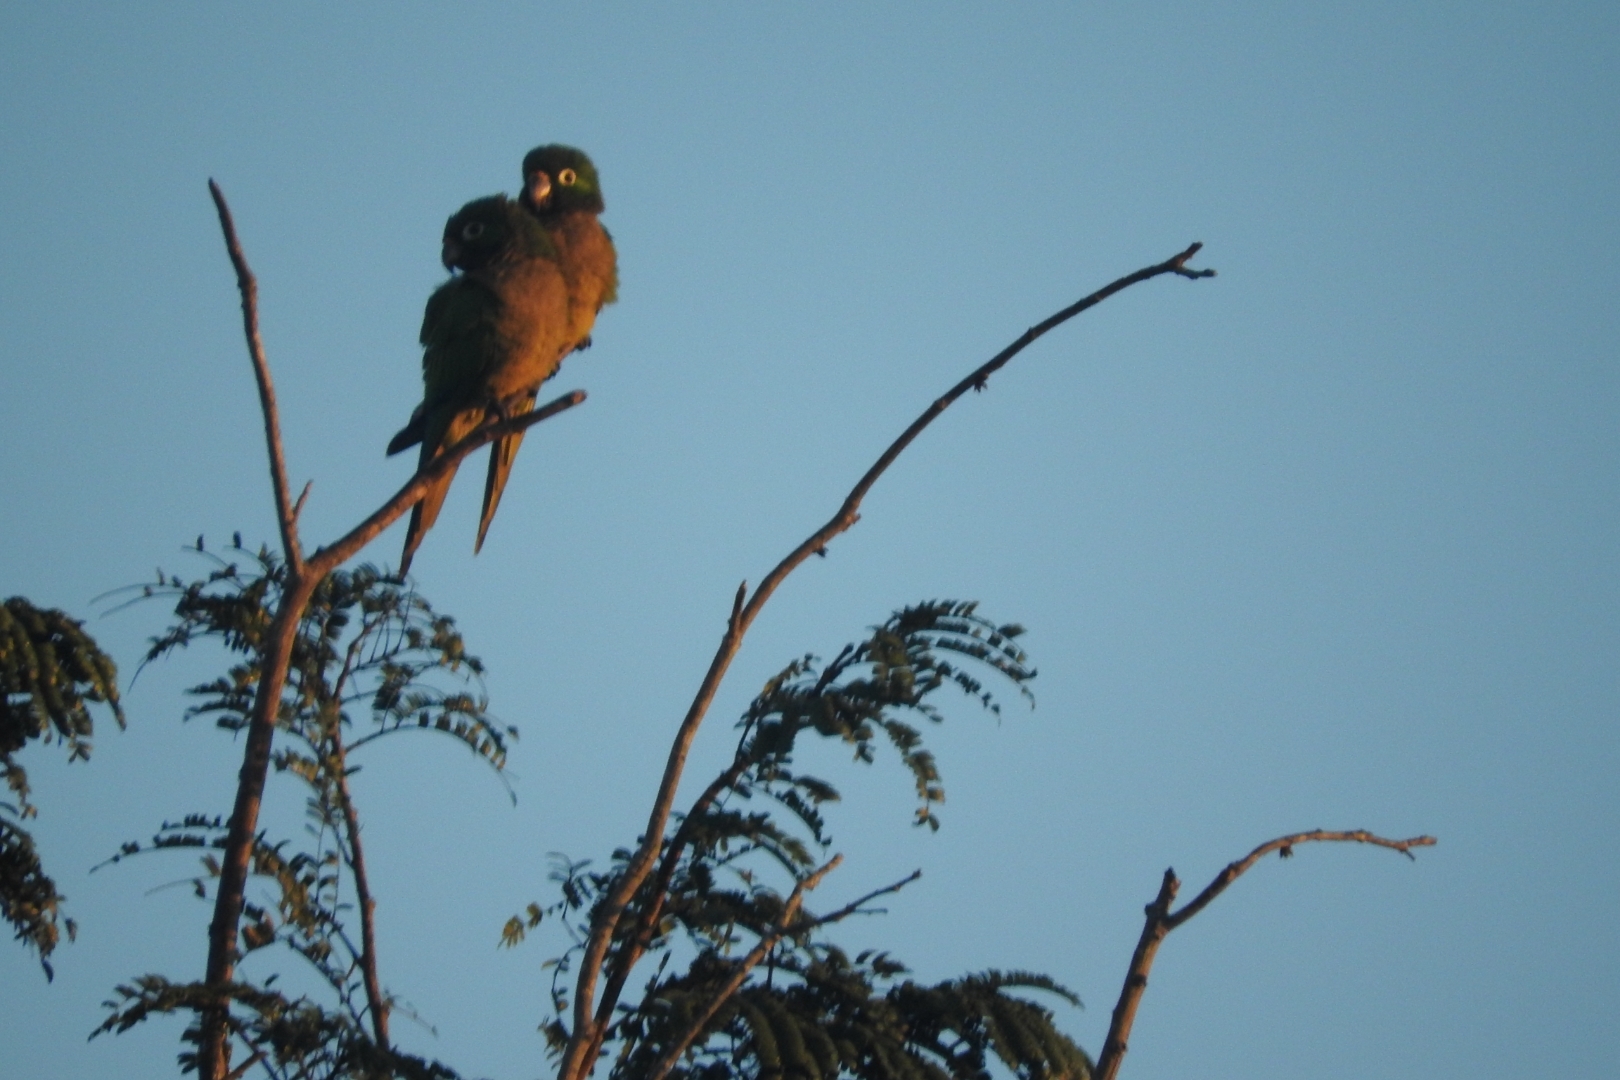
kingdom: Animalia
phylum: Chordata
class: Aves
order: Psittaciformes
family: Psittacidae
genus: Aratinga
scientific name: Aratinga nana
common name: Olive-throated parakeet
